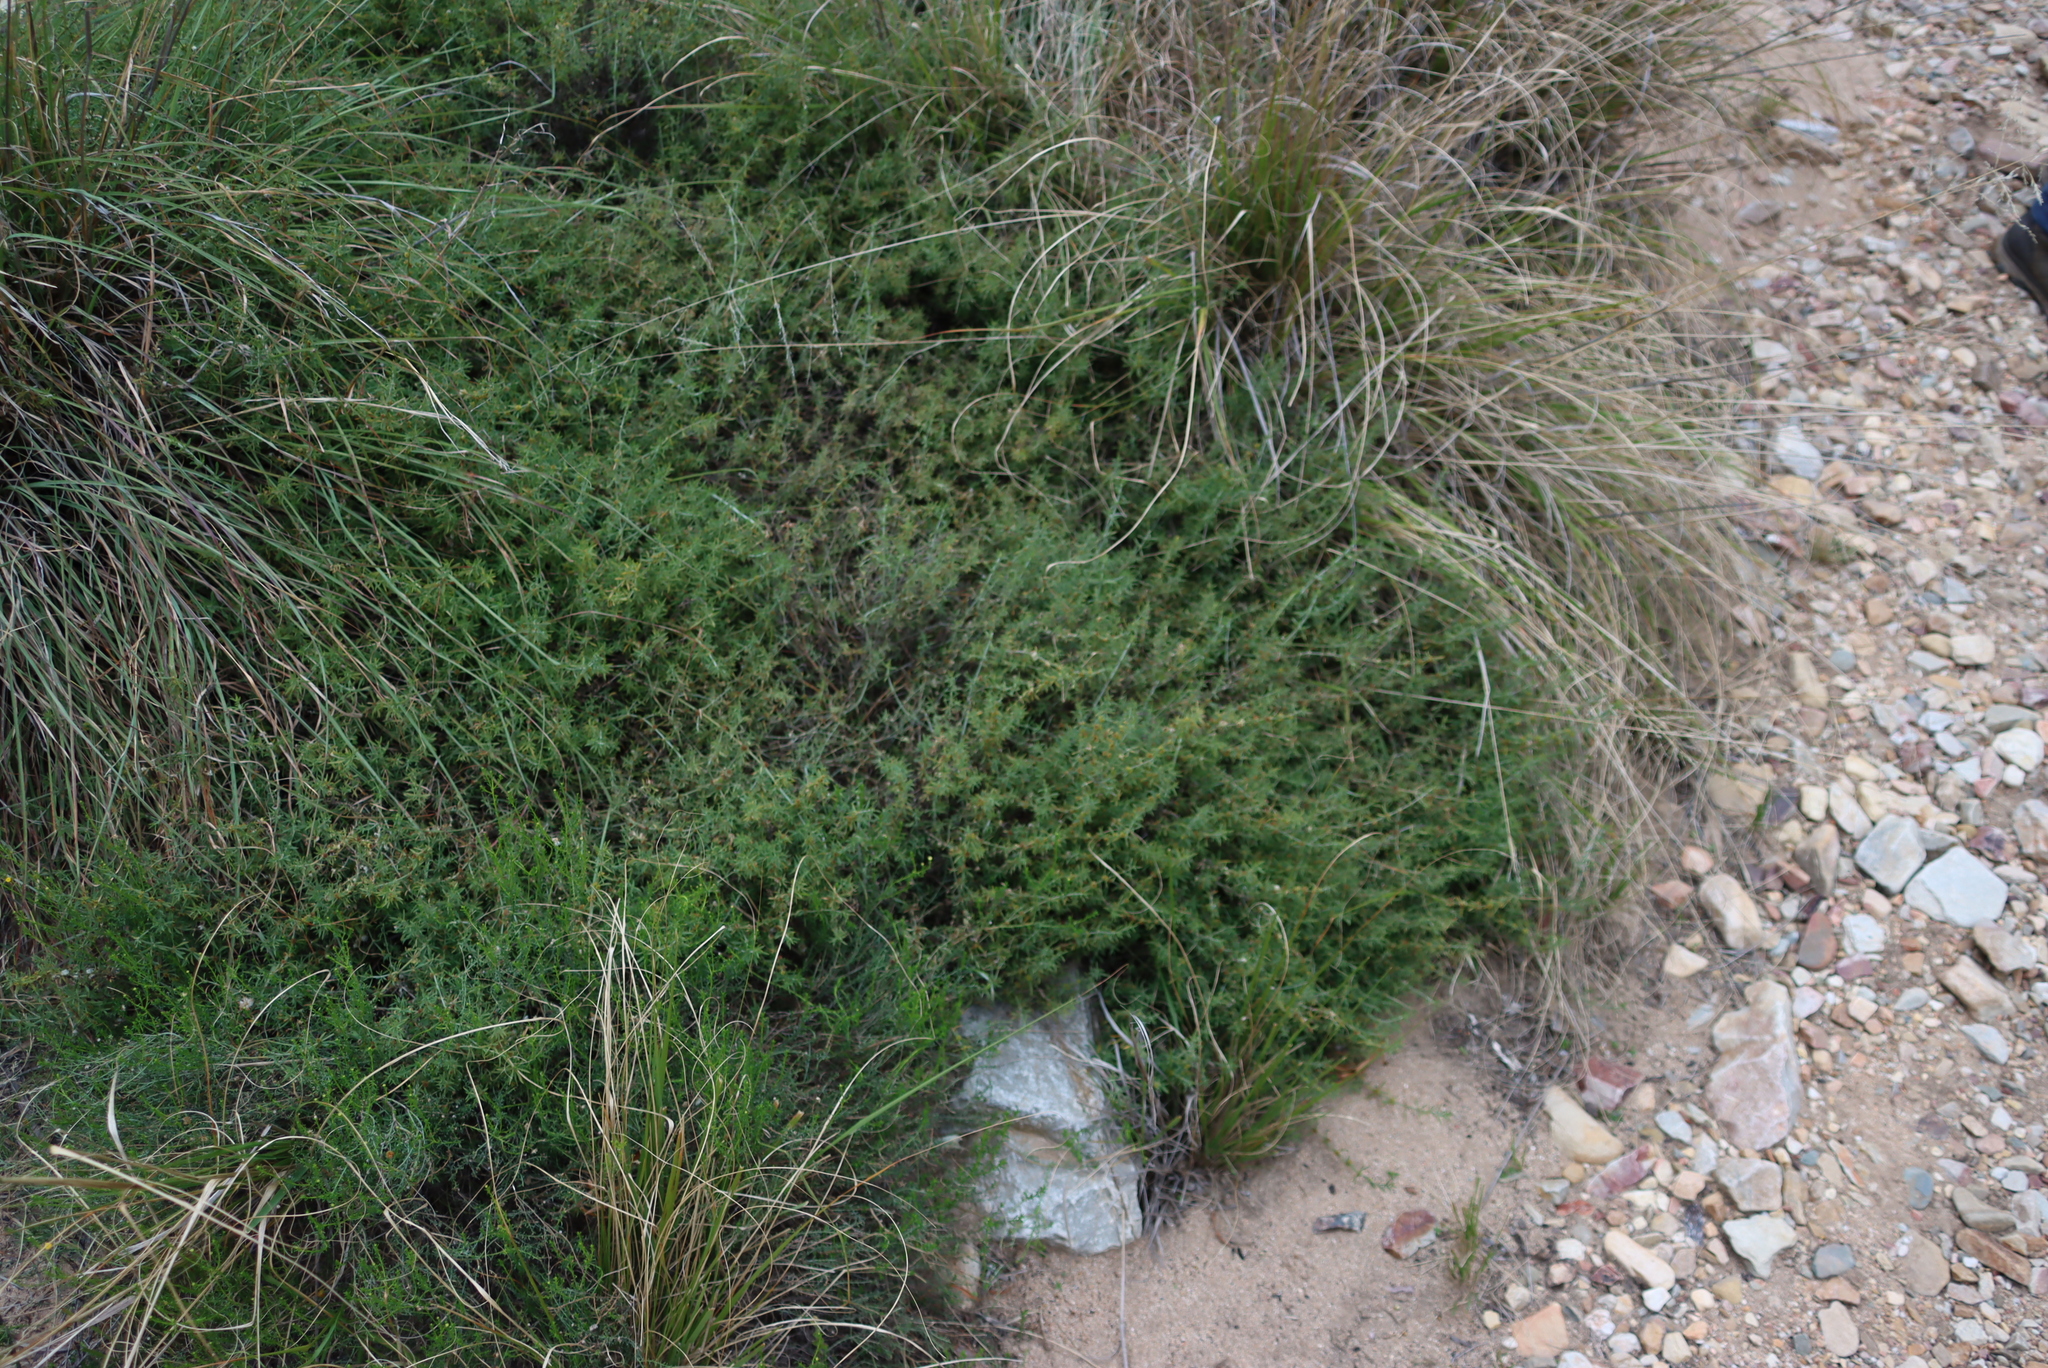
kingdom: Plantae
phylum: Tracheophyta
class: Magnoliopsida
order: Caryophyllales
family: Caryophyllaceae
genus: Pollichia
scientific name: Pollichia campestris
